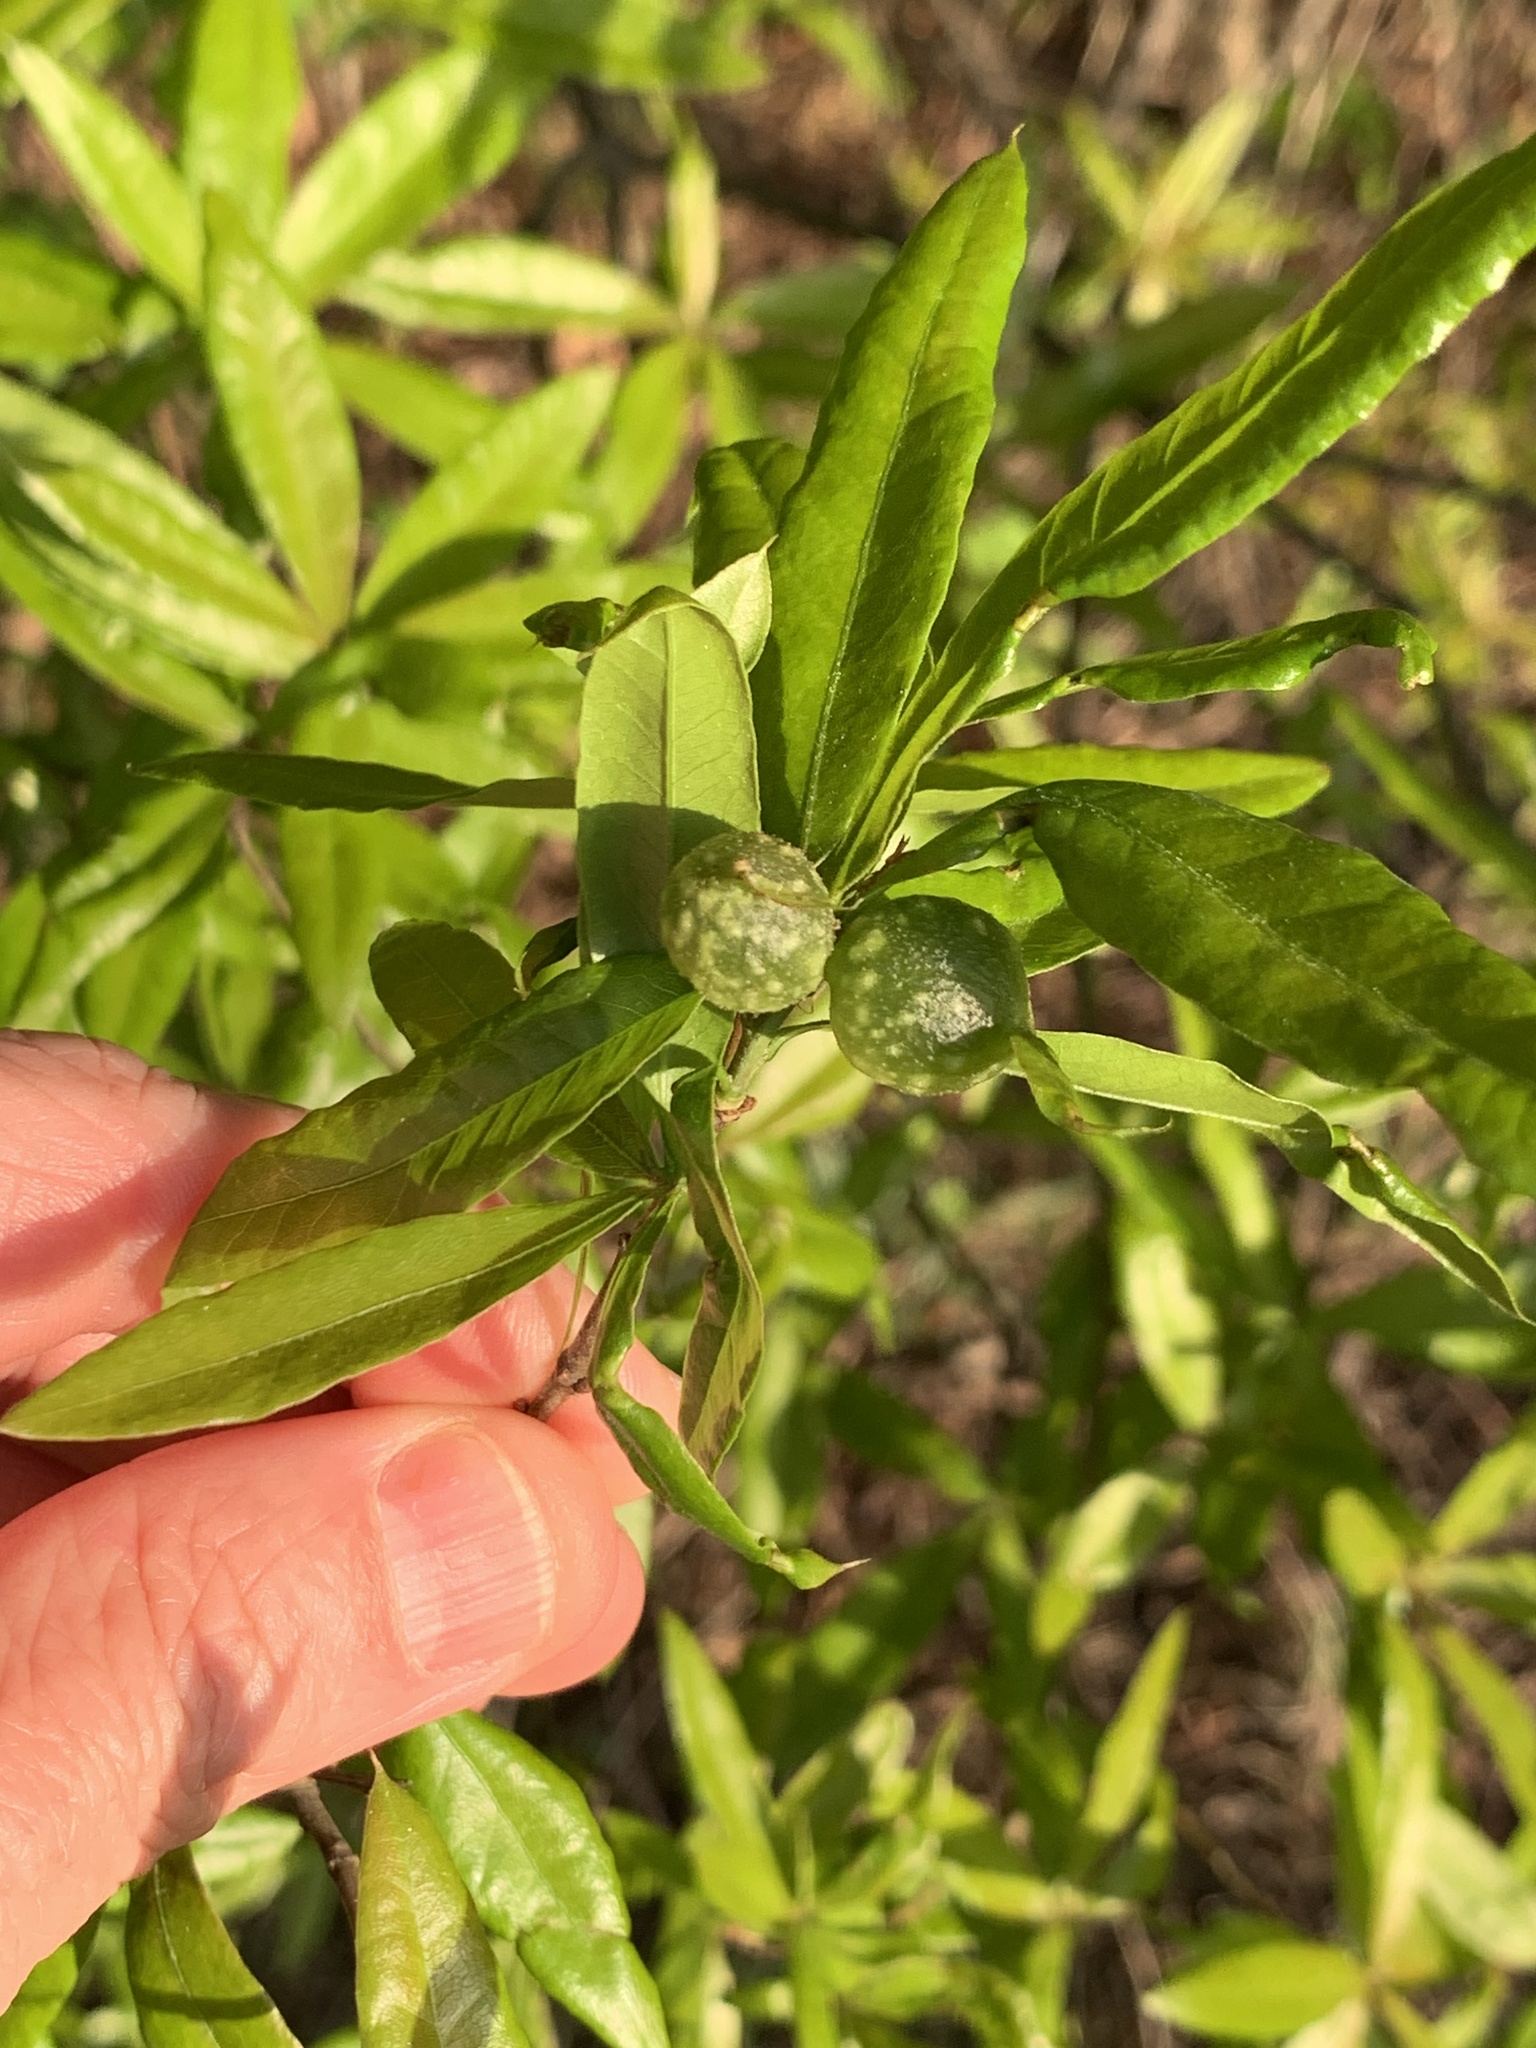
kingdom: Animalia
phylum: Arthropoda
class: Insecta
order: Hymenoptera
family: Cynipidae
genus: Dryocosmus
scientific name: Dryocosmus
